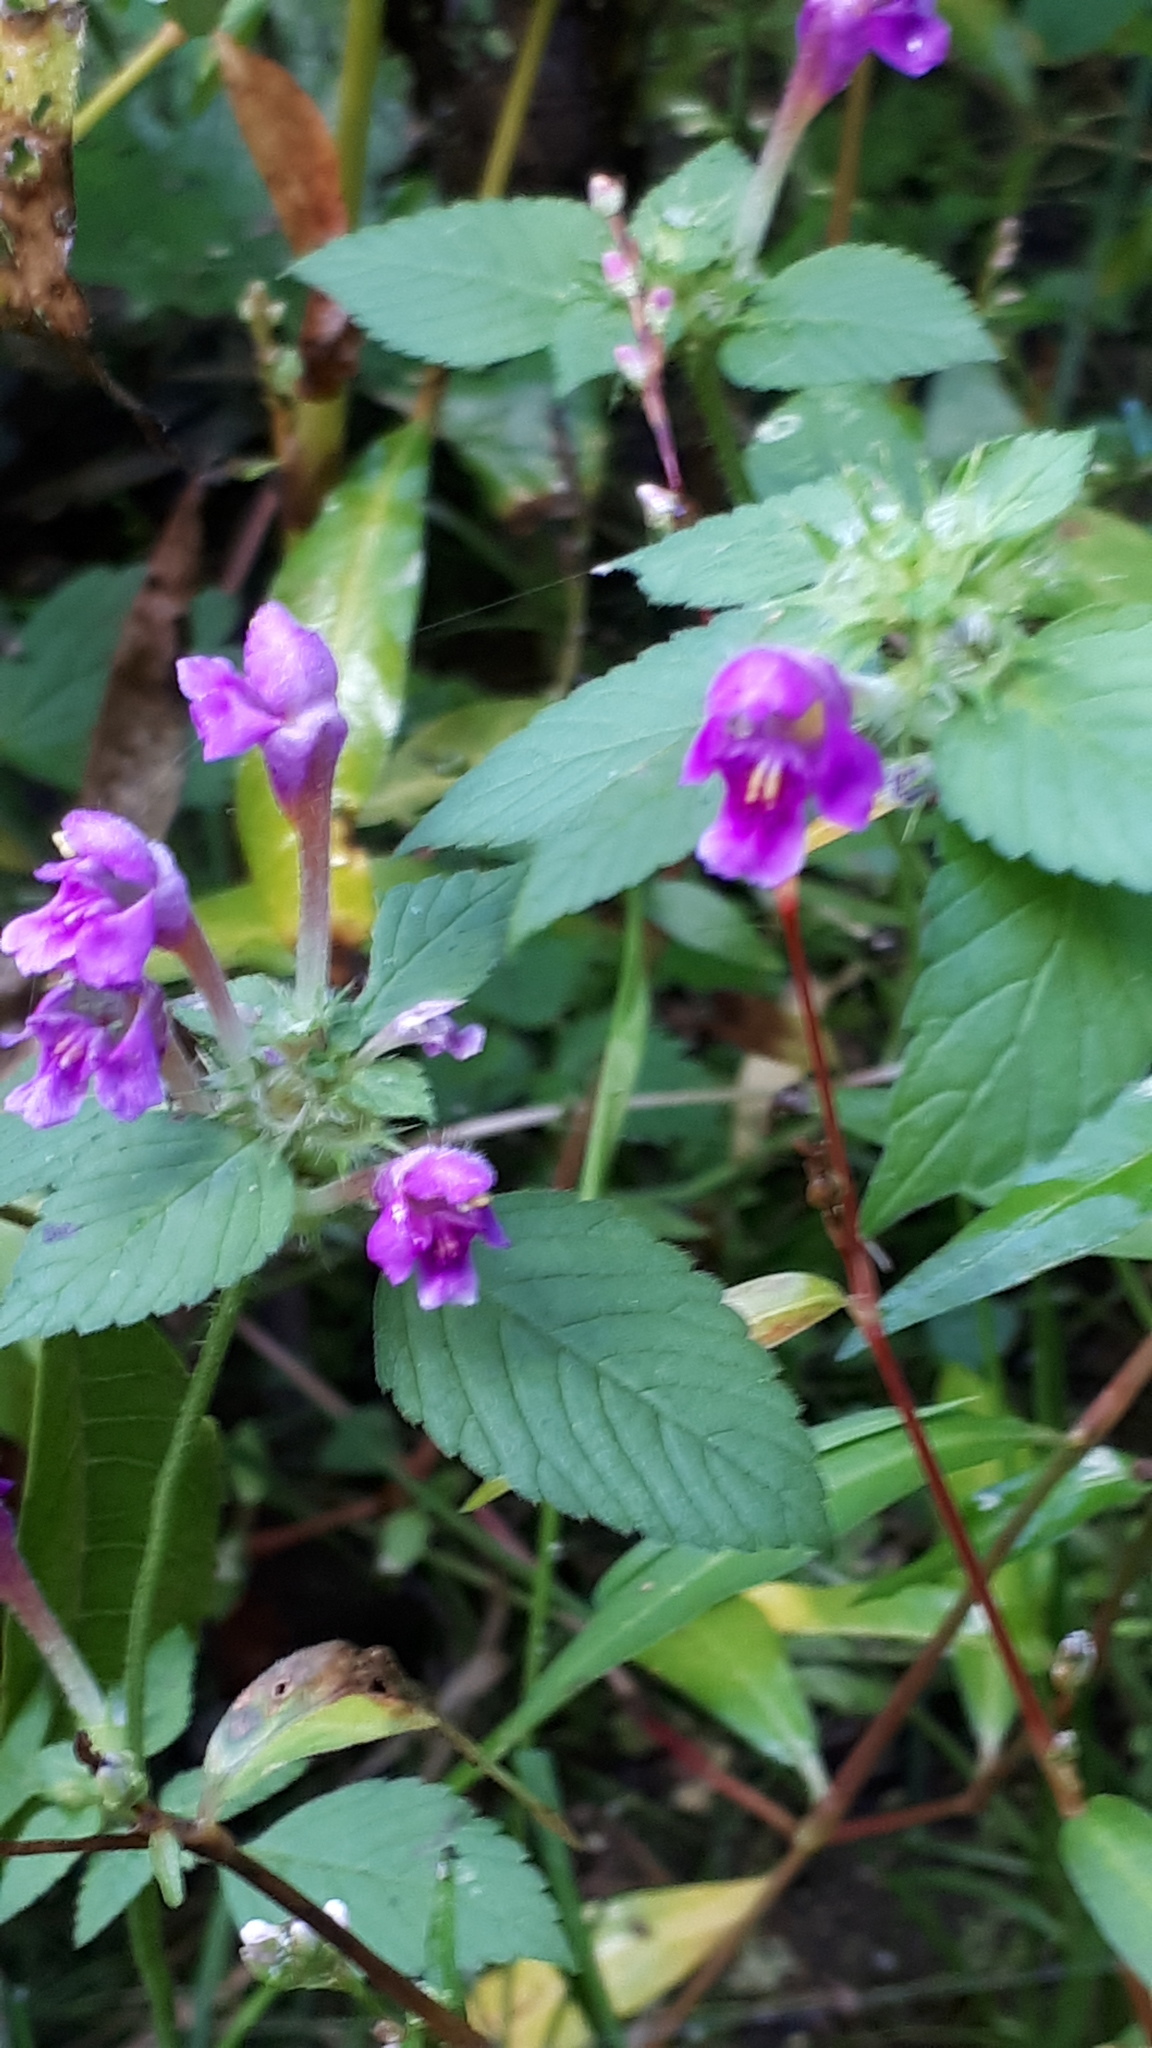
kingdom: Plantae
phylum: Tracheophyta
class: Magnoliopsida
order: Lamiales
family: Lamiaceae
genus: Galeopsis
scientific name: Galeopsis pubescens
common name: Downy hemp-nettle
